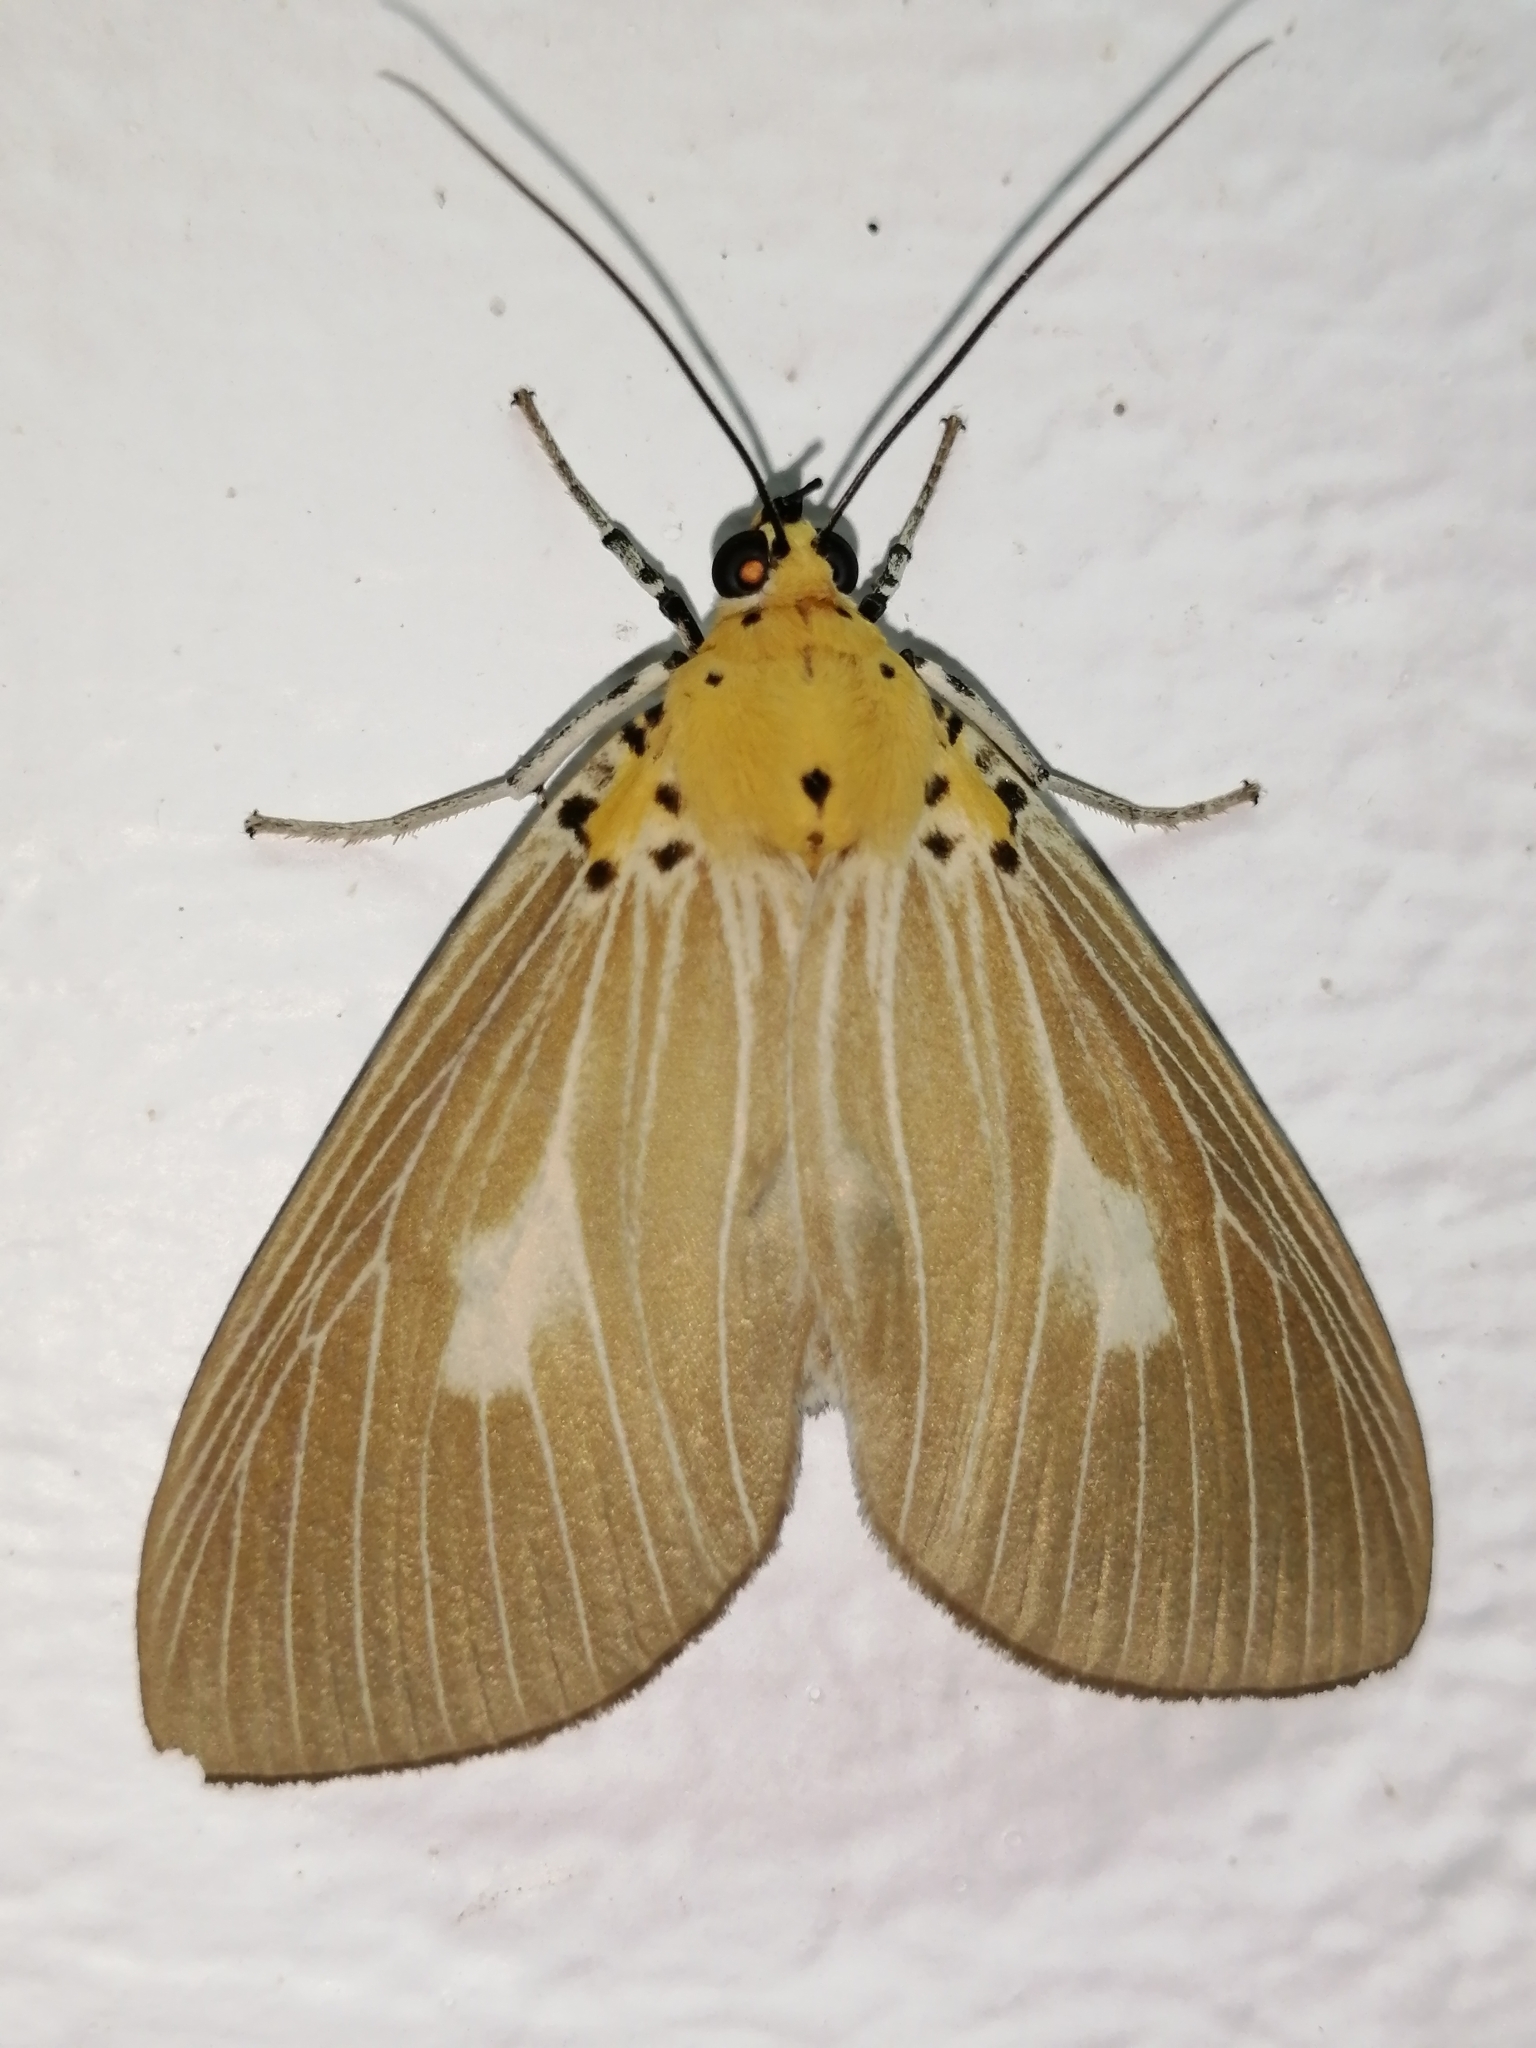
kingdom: Animalia
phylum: Arthropoda
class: Insecta
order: Lepidoptera
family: Erebidae
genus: Asota
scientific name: Asota plaginota
